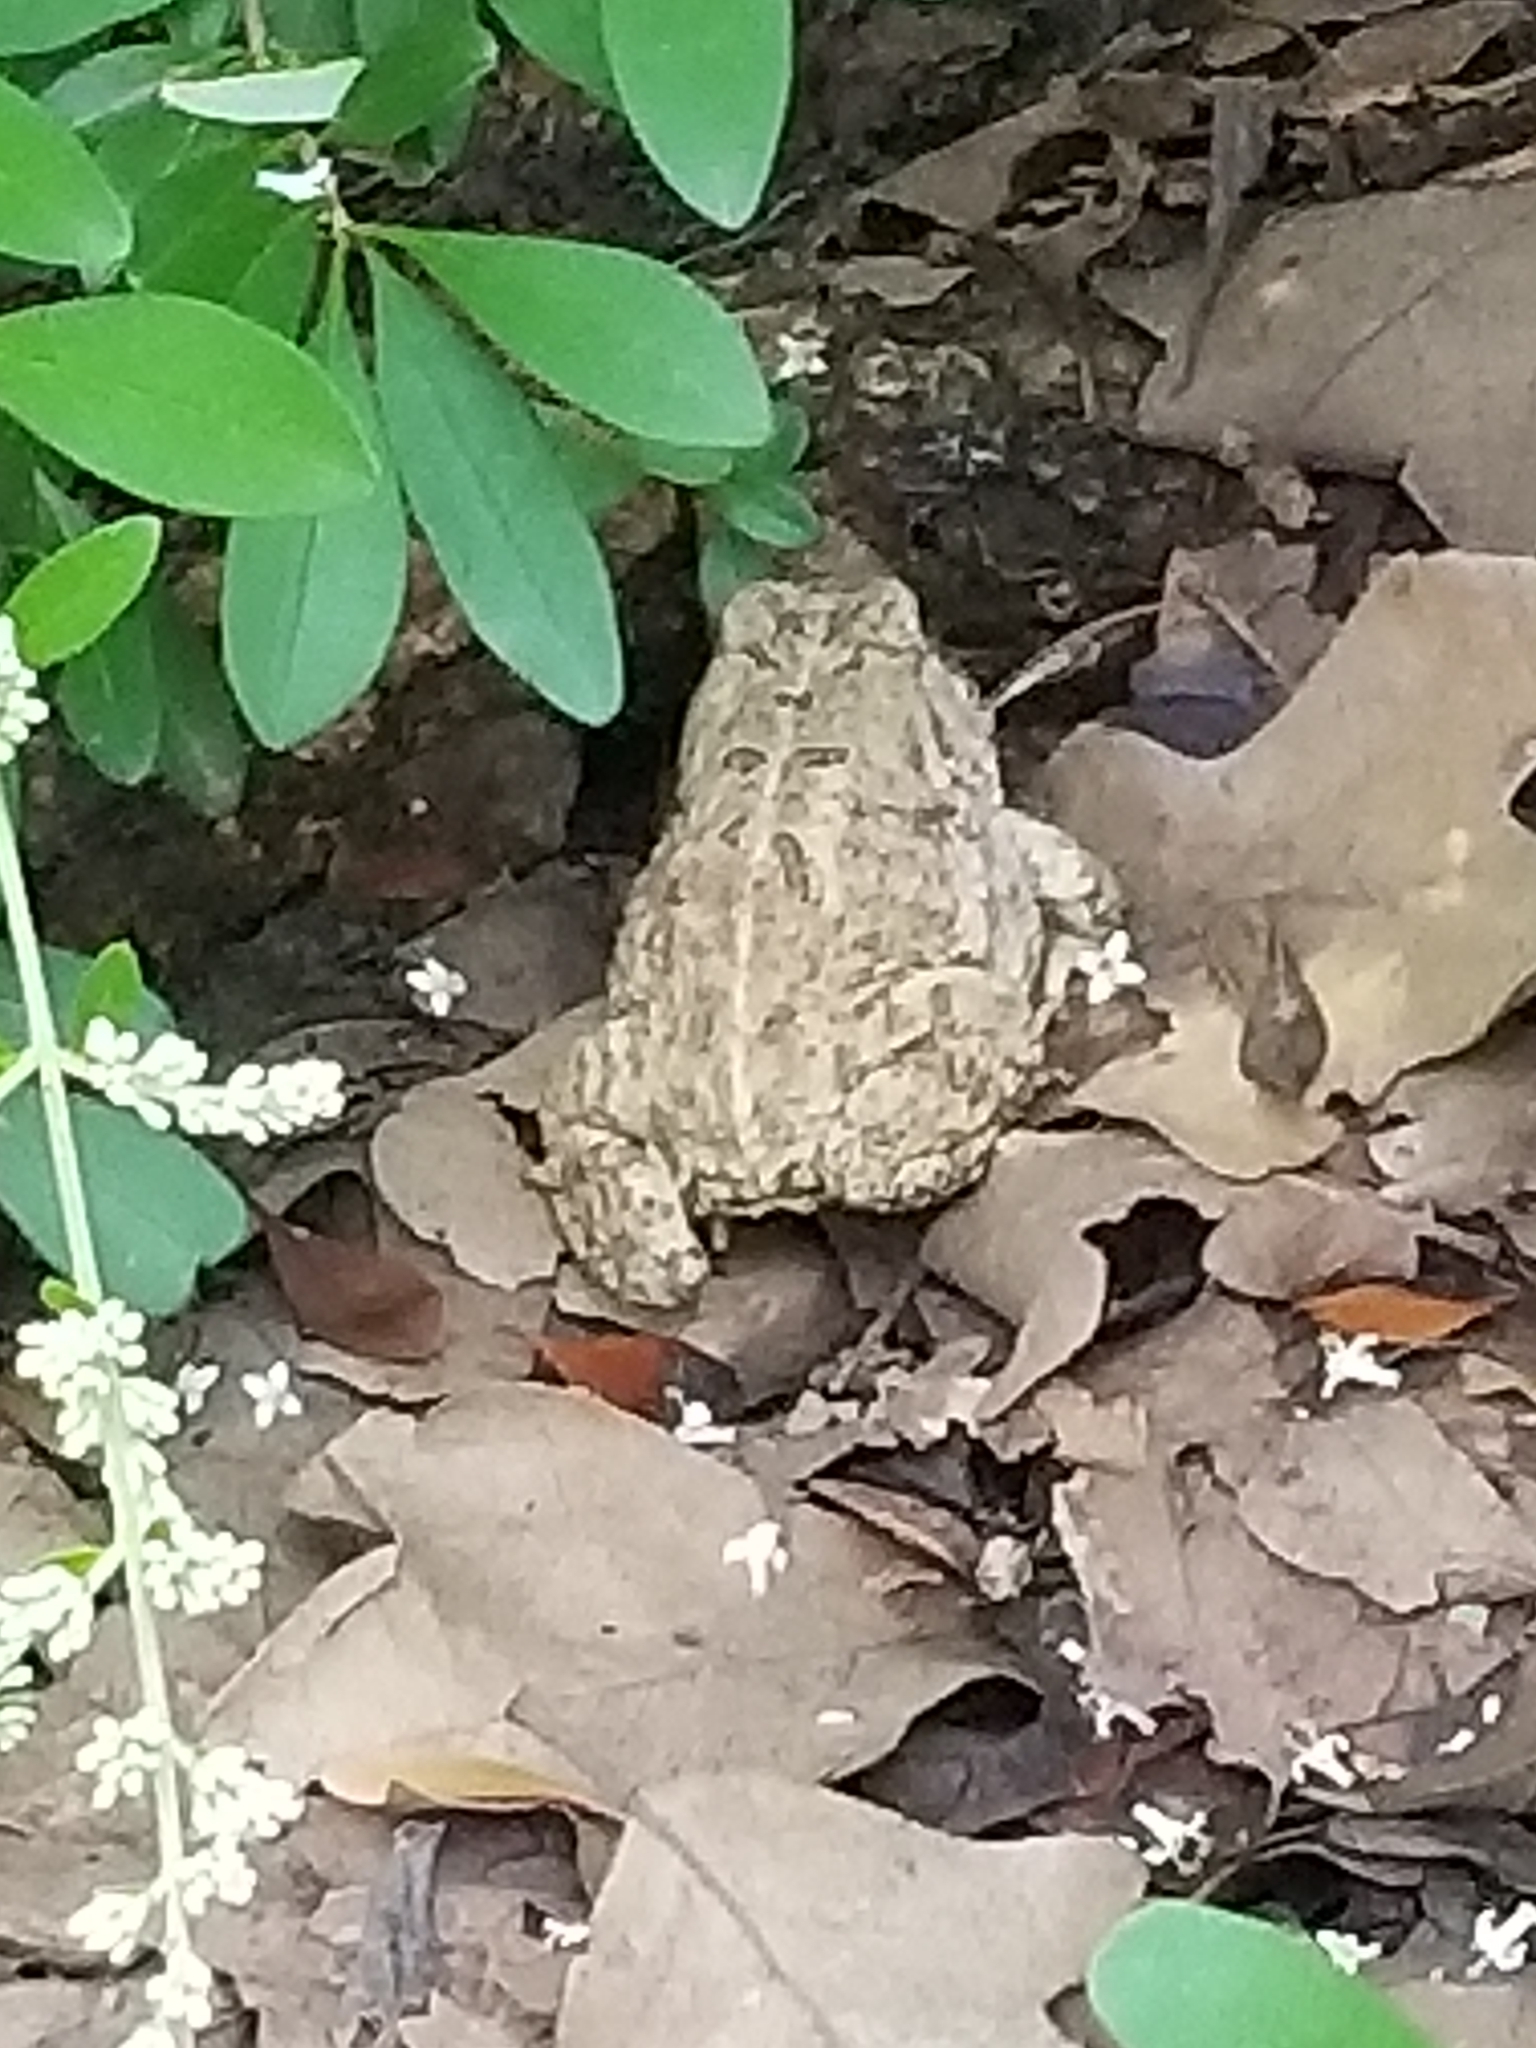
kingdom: Animalia
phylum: Chordata
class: Amphibia
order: Anura
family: Bufonidae
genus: Anaxyrus
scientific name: Anaxyrus woodhousii
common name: Woodhouse's toad
